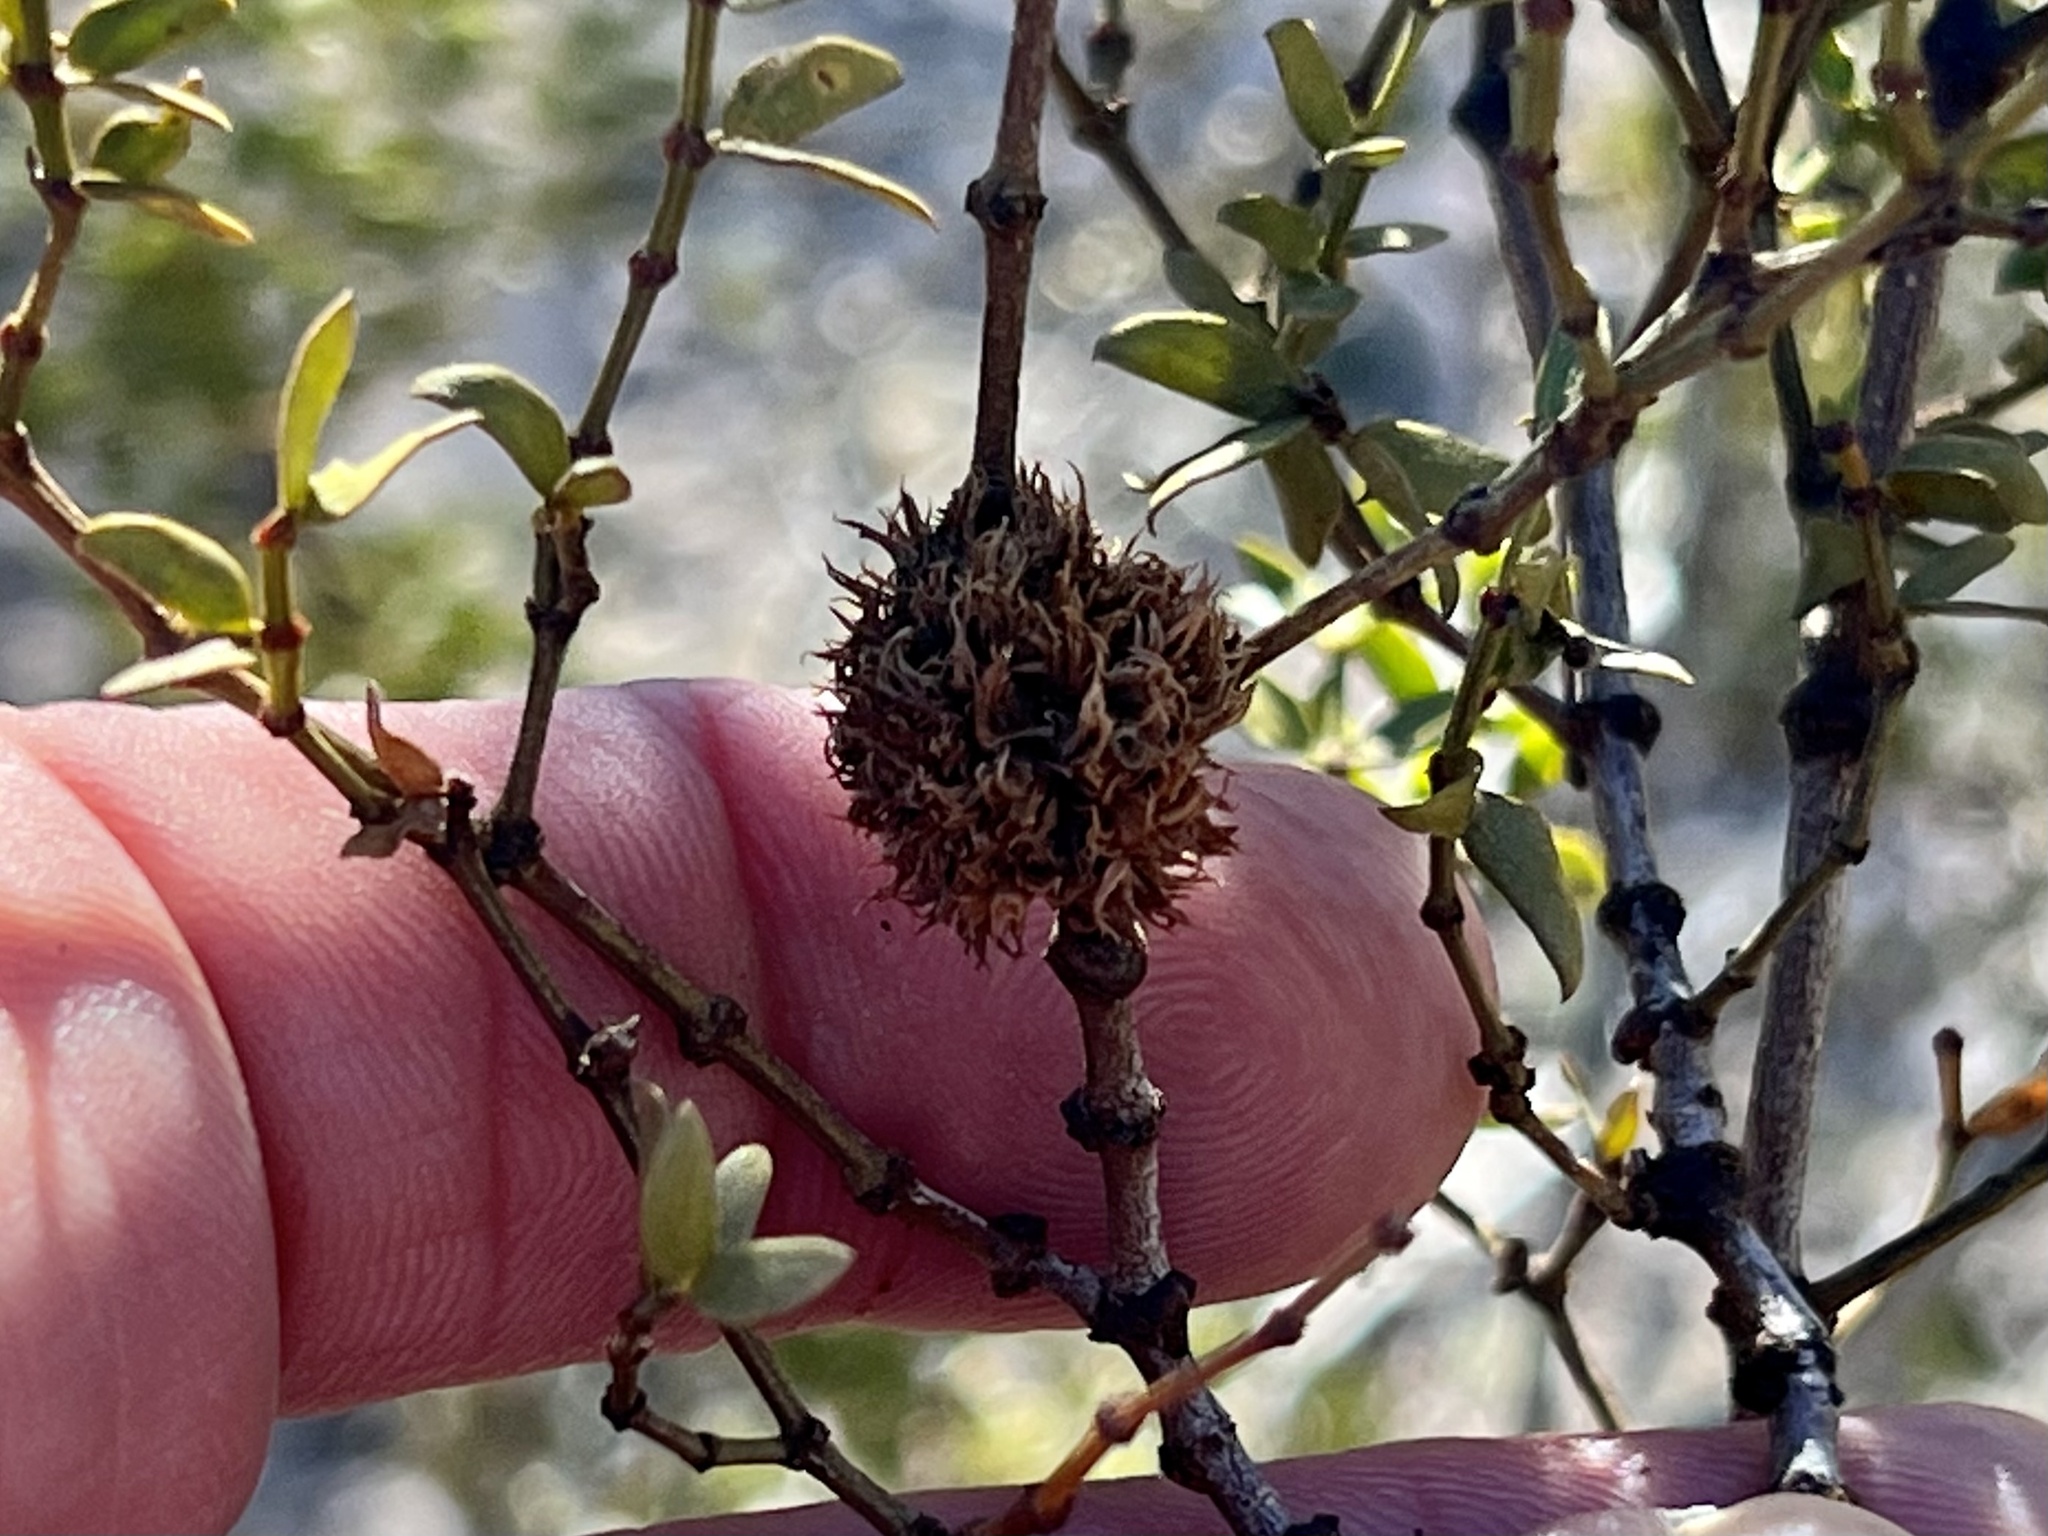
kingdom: Animalia
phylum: Arthropoda
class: Insecta
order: Diptera
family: Cecidomyiidae
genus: Asphondylia
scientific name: Asphondylia auripila
